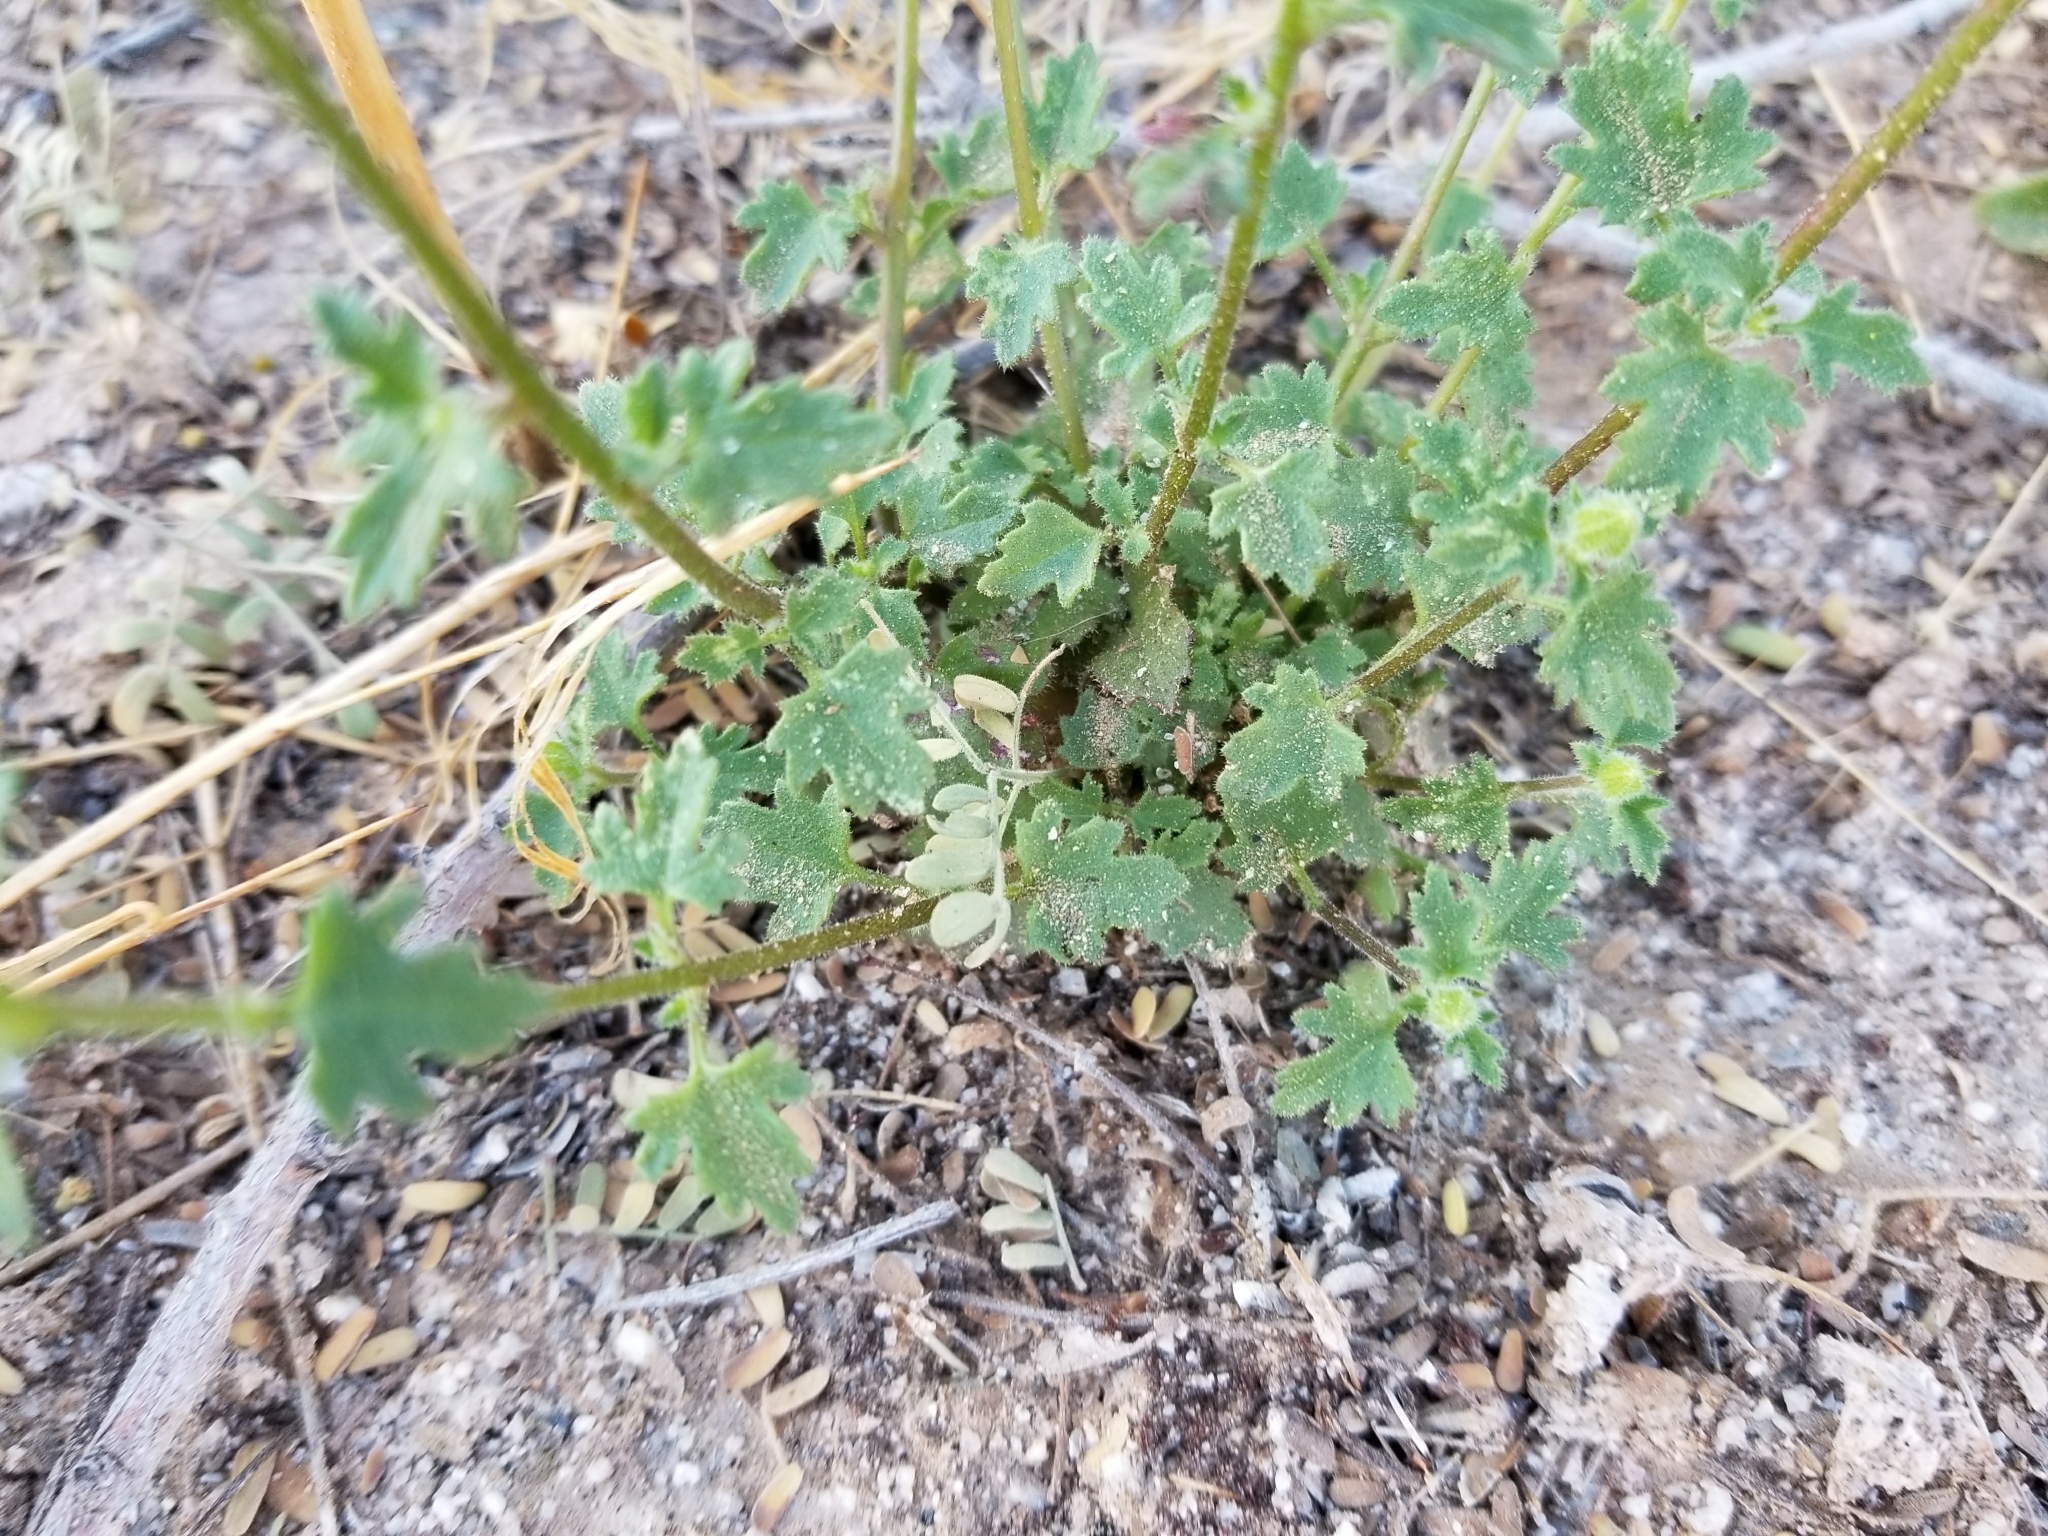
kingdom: Plantae
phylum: Tracheophyta
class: Magnoliopsida
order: Asterales
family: Asteraceae
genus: Laphamia
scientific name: Laphamia emoryi
